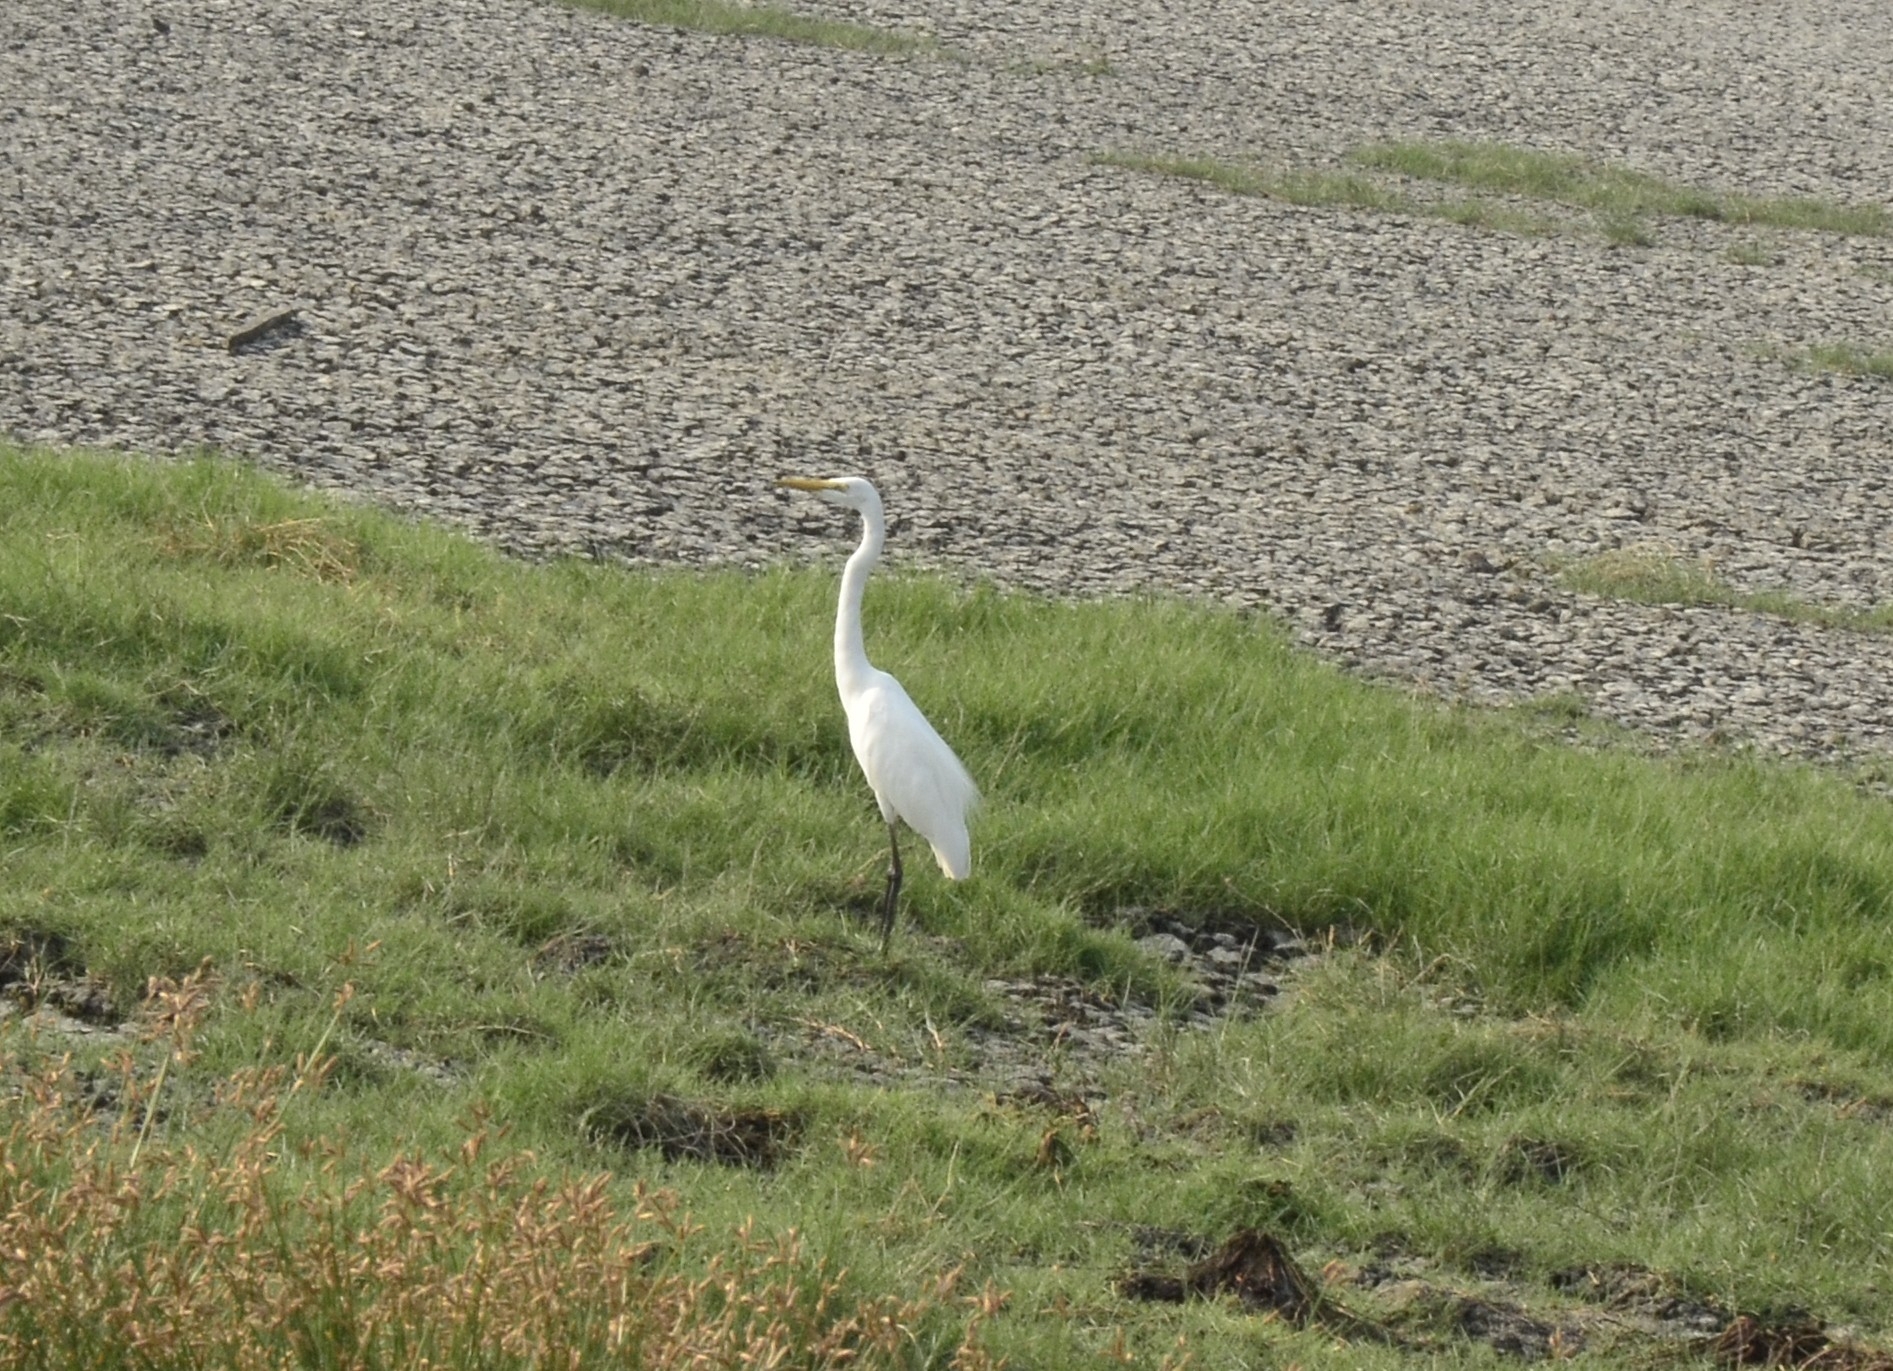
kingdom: Animalia
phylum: Chordata
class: Aves
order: Pelecaniformes
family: Ardeidae
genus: Ardea
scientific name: Ardea alba
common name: Great egret
